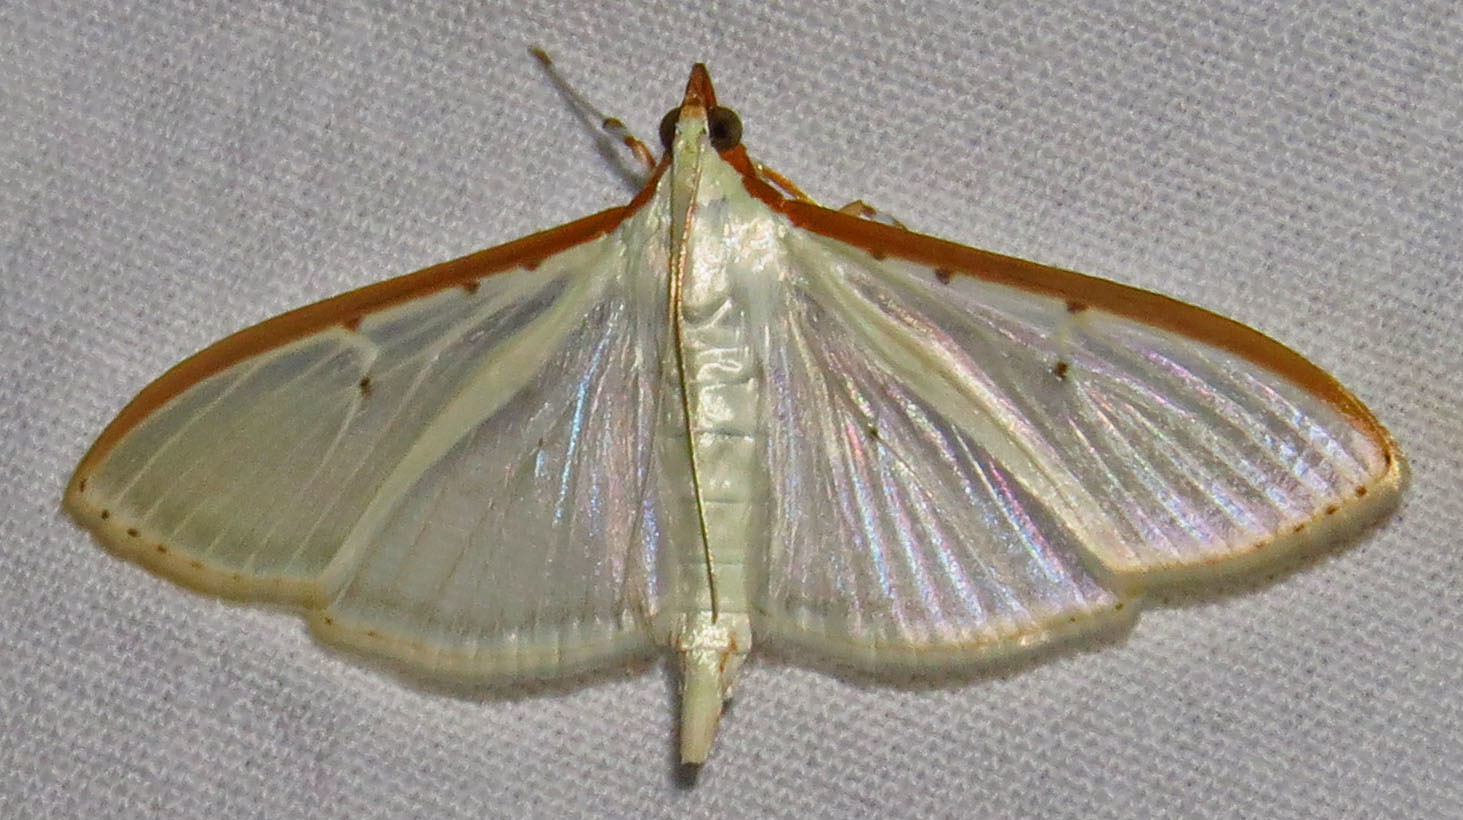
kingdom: Animalia
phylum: Arthropoda
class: Insecta
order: Lepidoptera
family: Crambidae
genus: Palpita
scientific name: Palpita quadristigmalis
